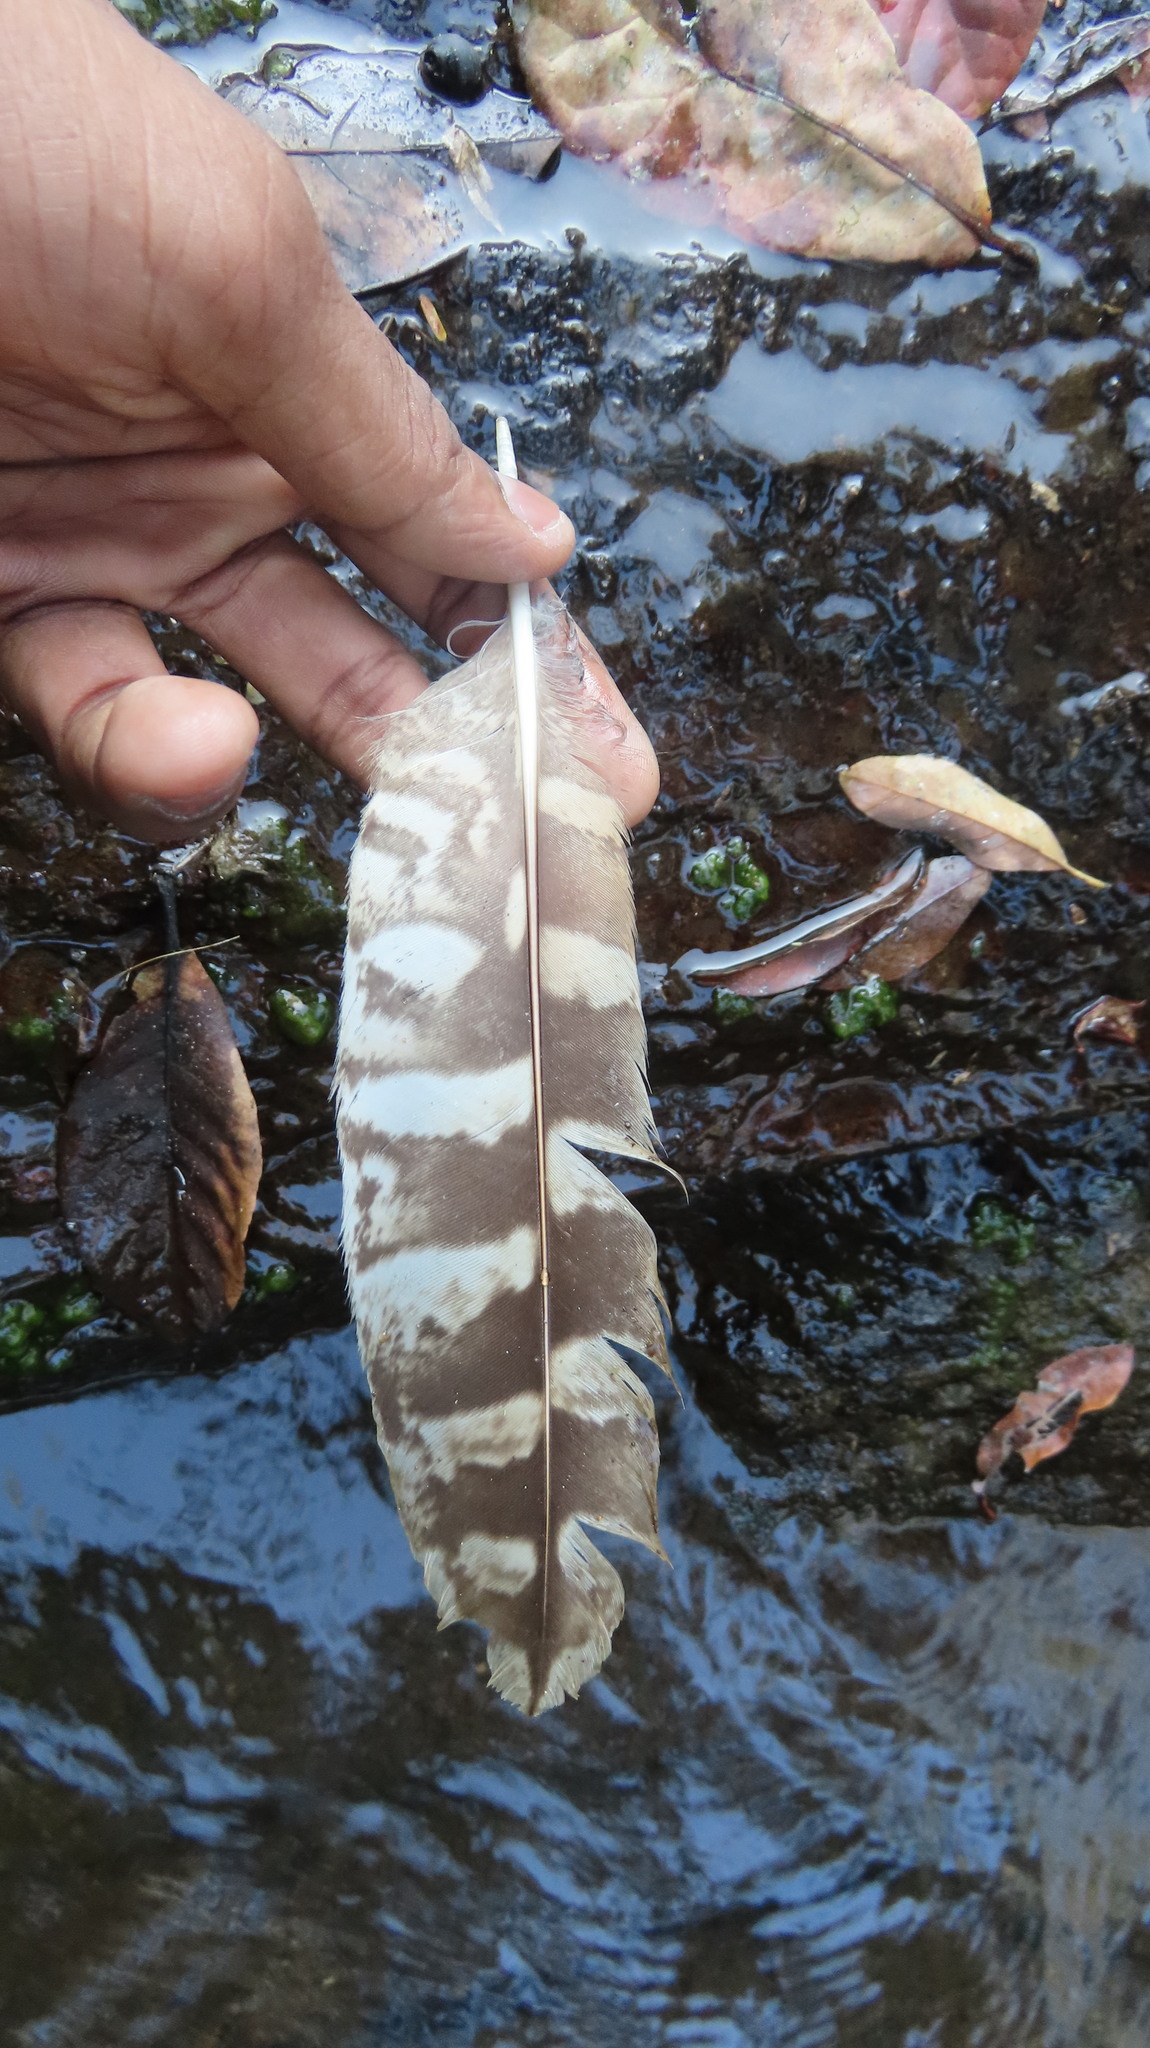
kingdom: Animalia
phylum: Chordata
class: Aves
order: Strigiformes
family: Strigidae
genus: Ketupa
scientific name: Ketupa zeylonensis
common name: Brown fish owl
